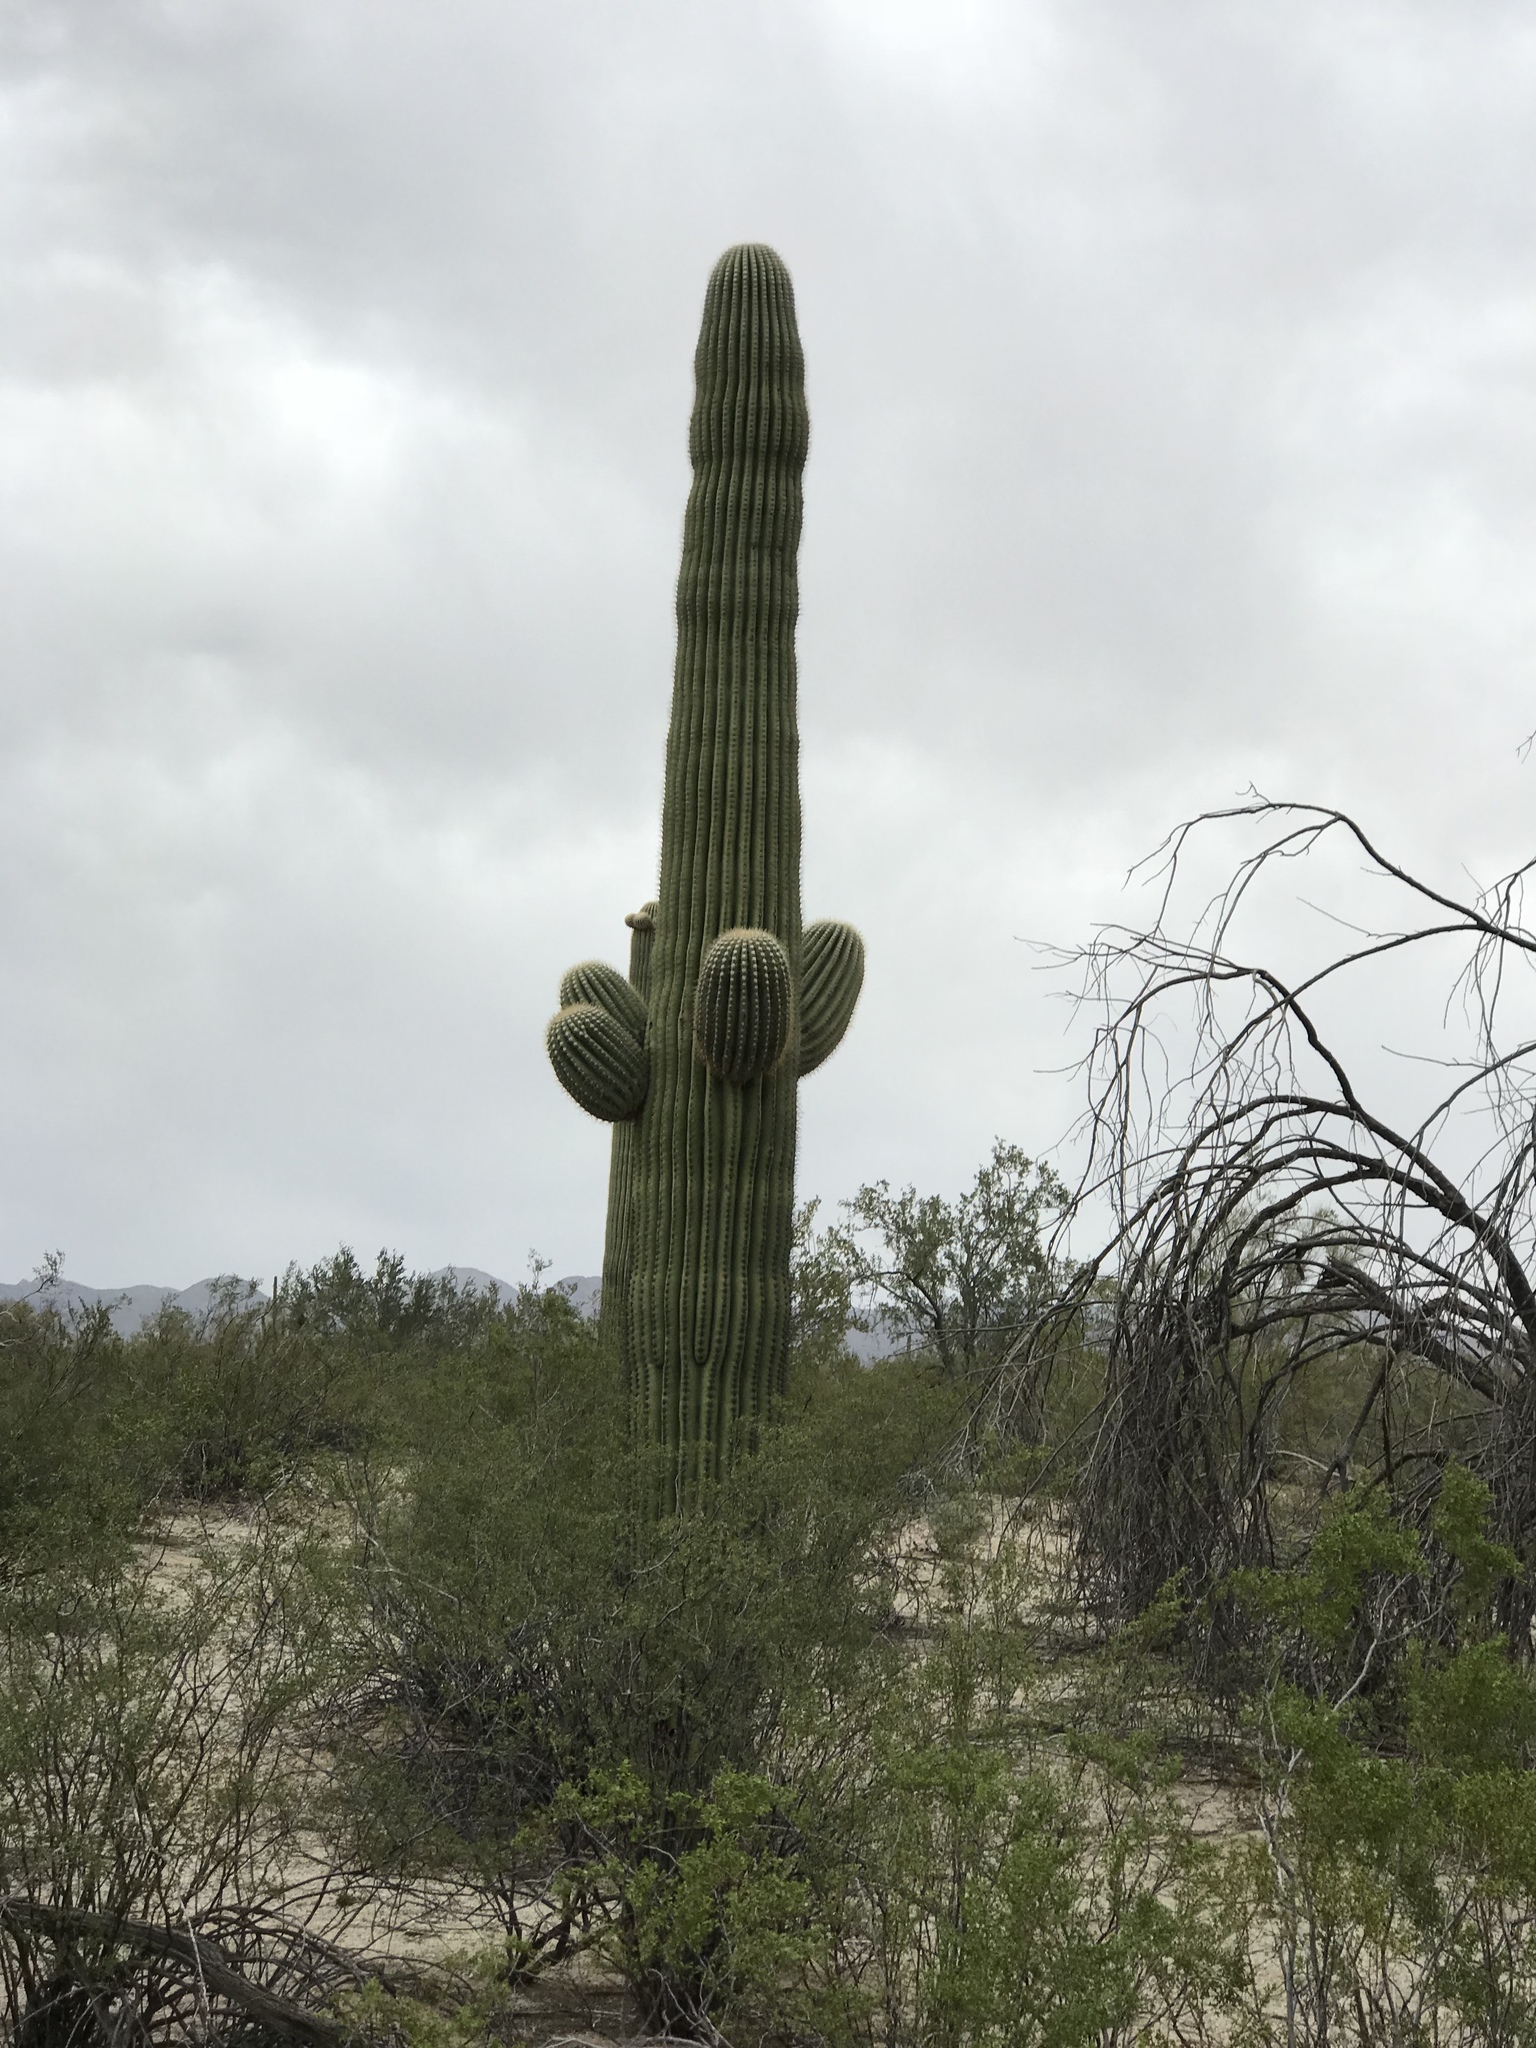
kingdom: Plantae
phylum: Tracheophyta
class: Magnoliopsida
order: Caryophyllales
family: Cactaceae
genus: Carnegiea
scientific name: Carnegiea gigantea
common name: Saguaro
